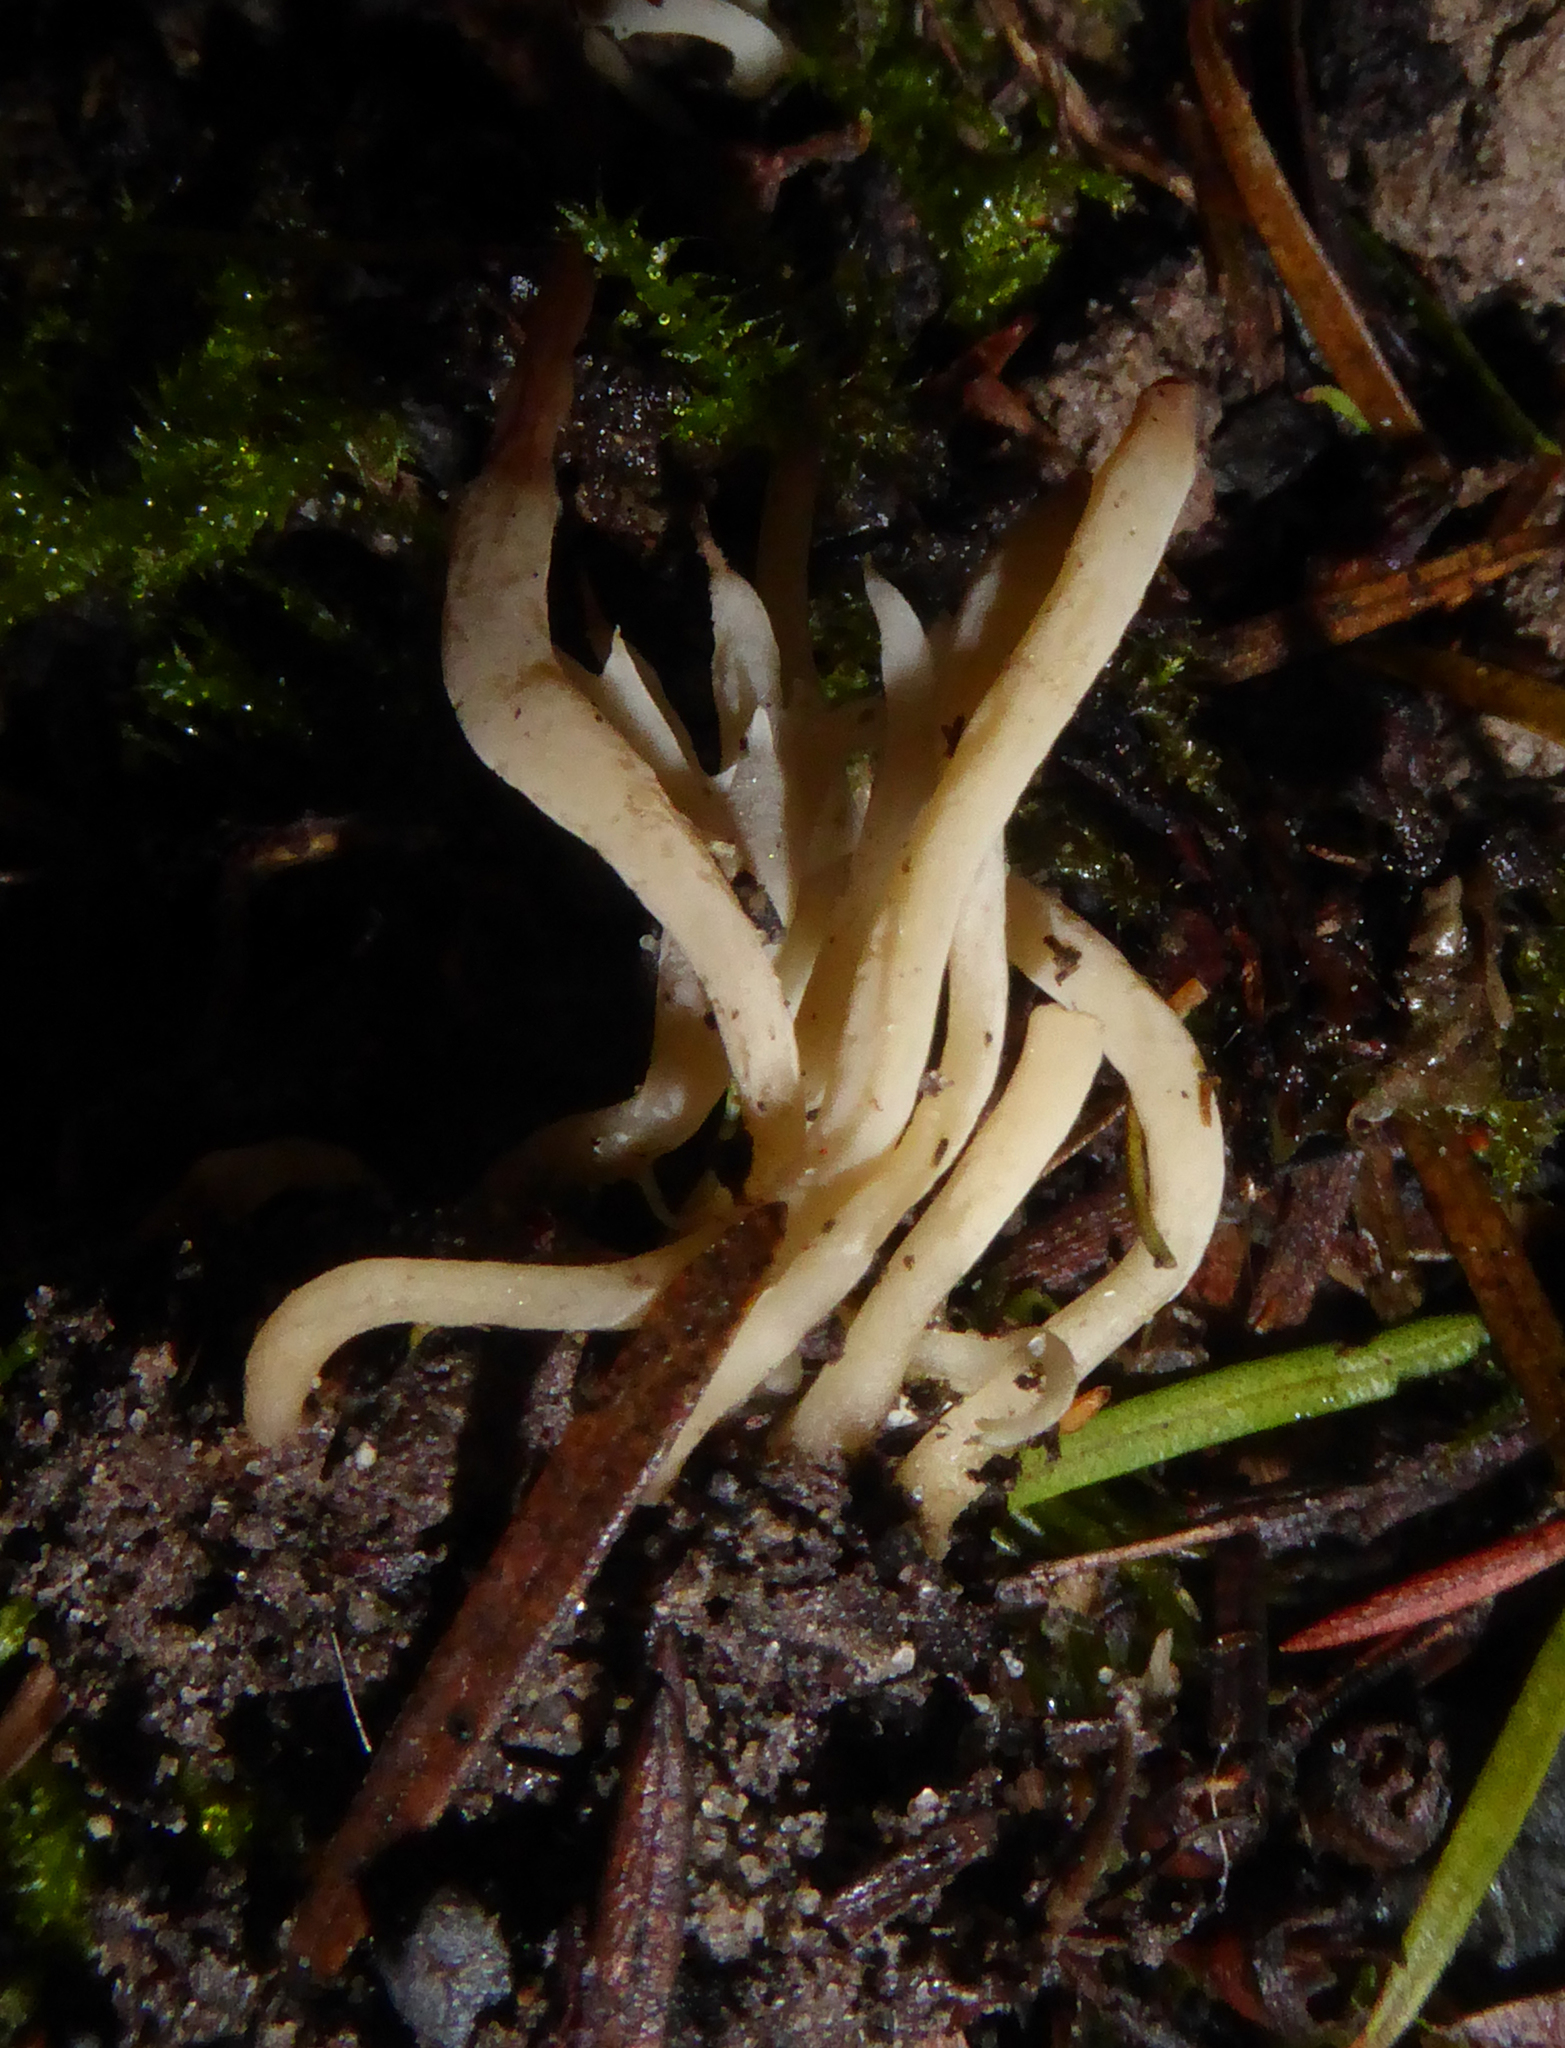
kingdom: Fungi
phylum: Basidiomycota
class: Agaricomycetes
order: Cantharellales
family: Hydnaceae
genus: Clavulina
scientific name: Clavulina subrugosa
